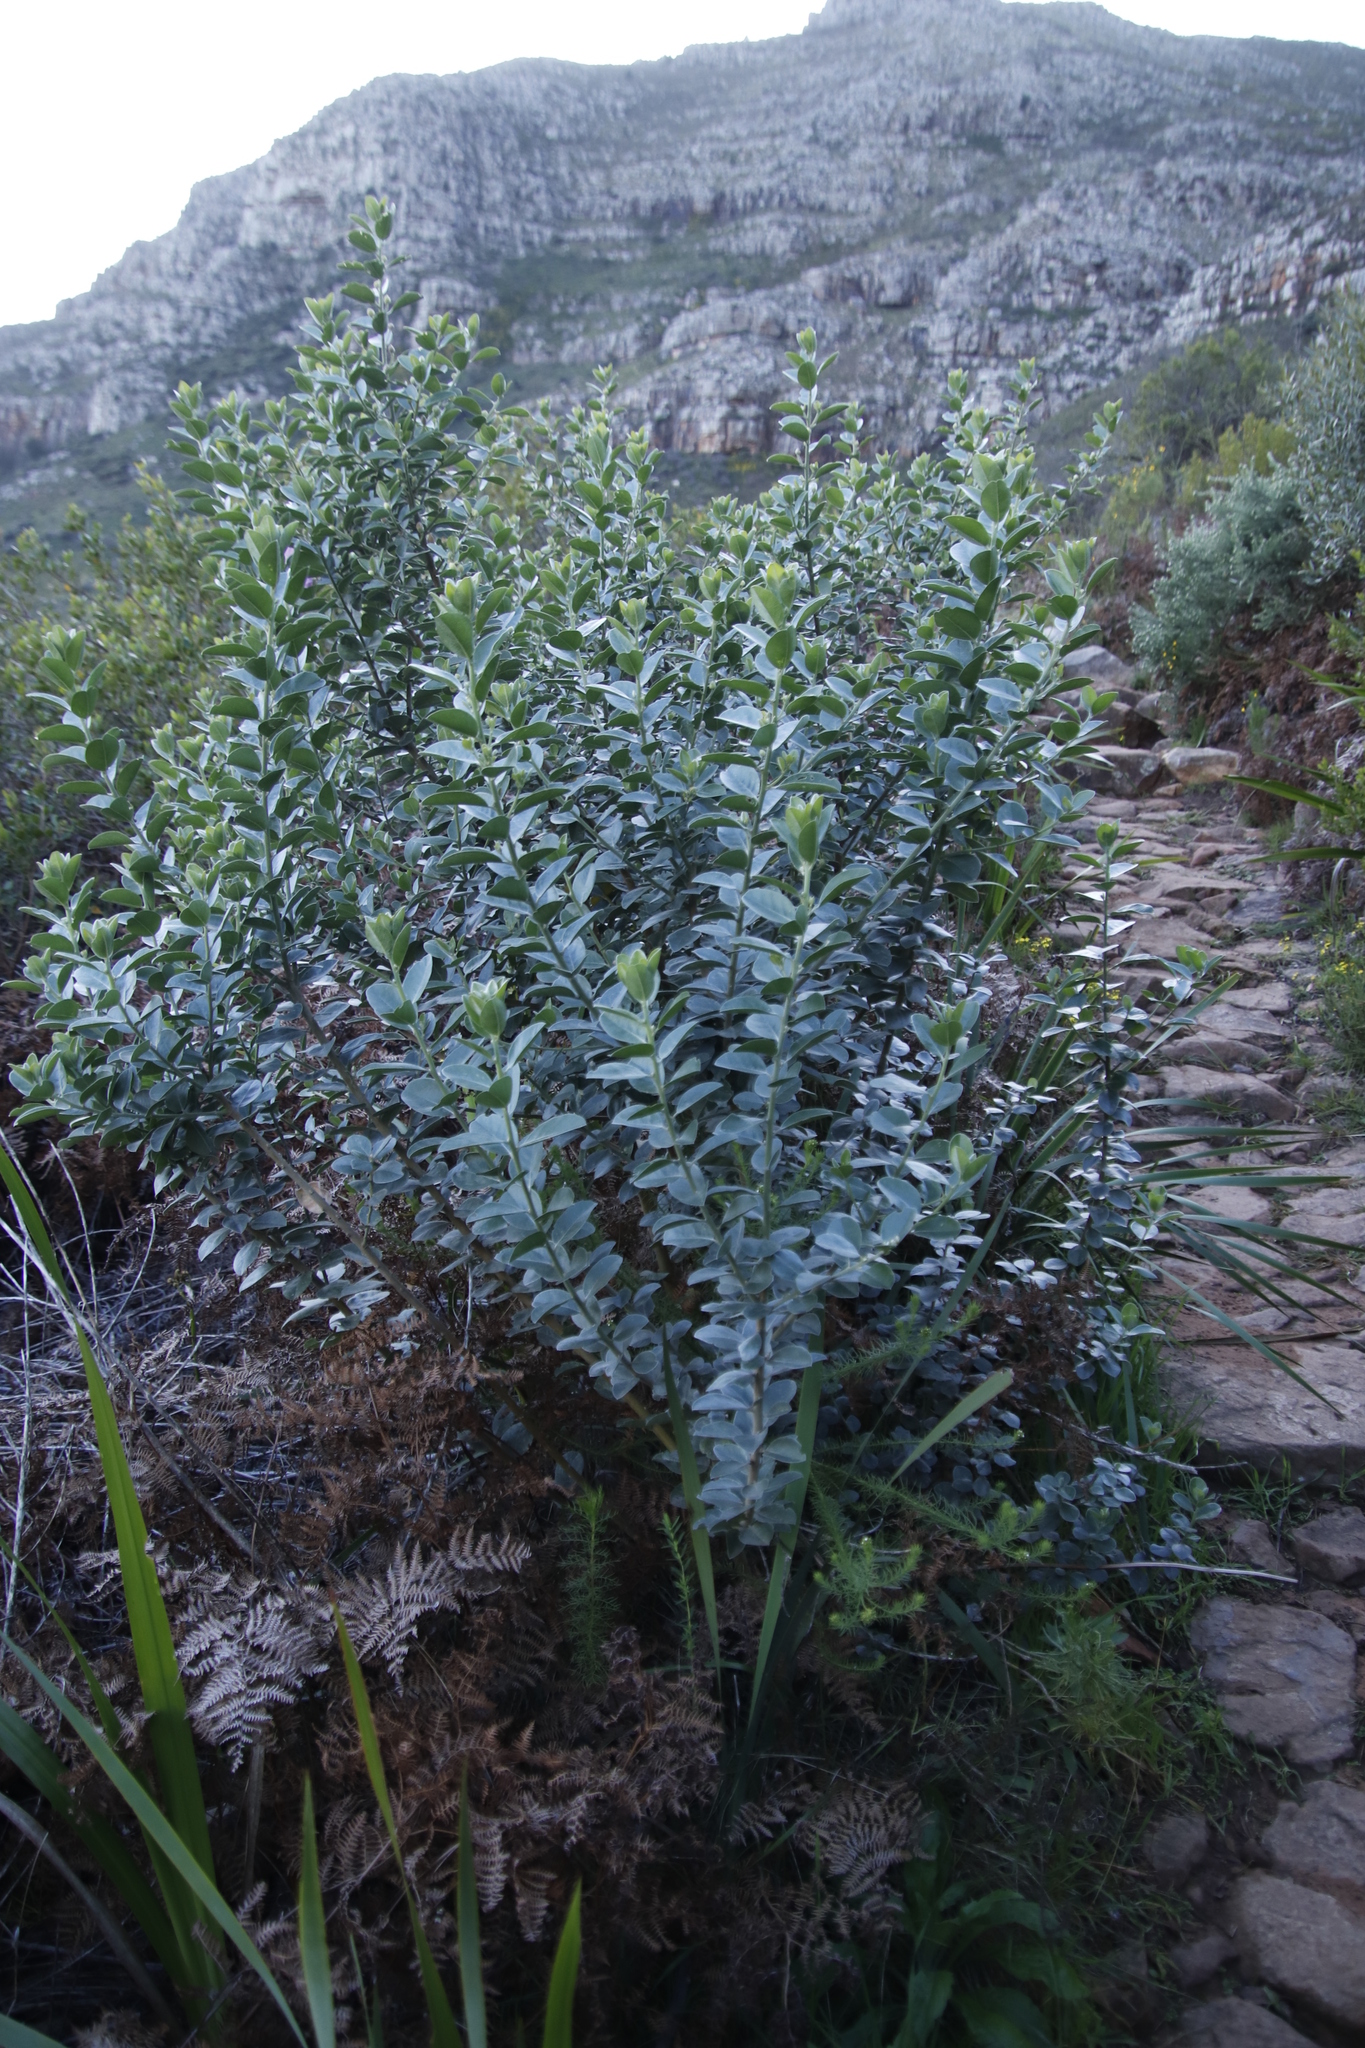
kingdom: Plantae
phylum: Tracheophyta
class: Magnoliopsida
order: Fabales
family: Fabaceae
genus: Podalyria
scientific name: Podalyria calyptrata
